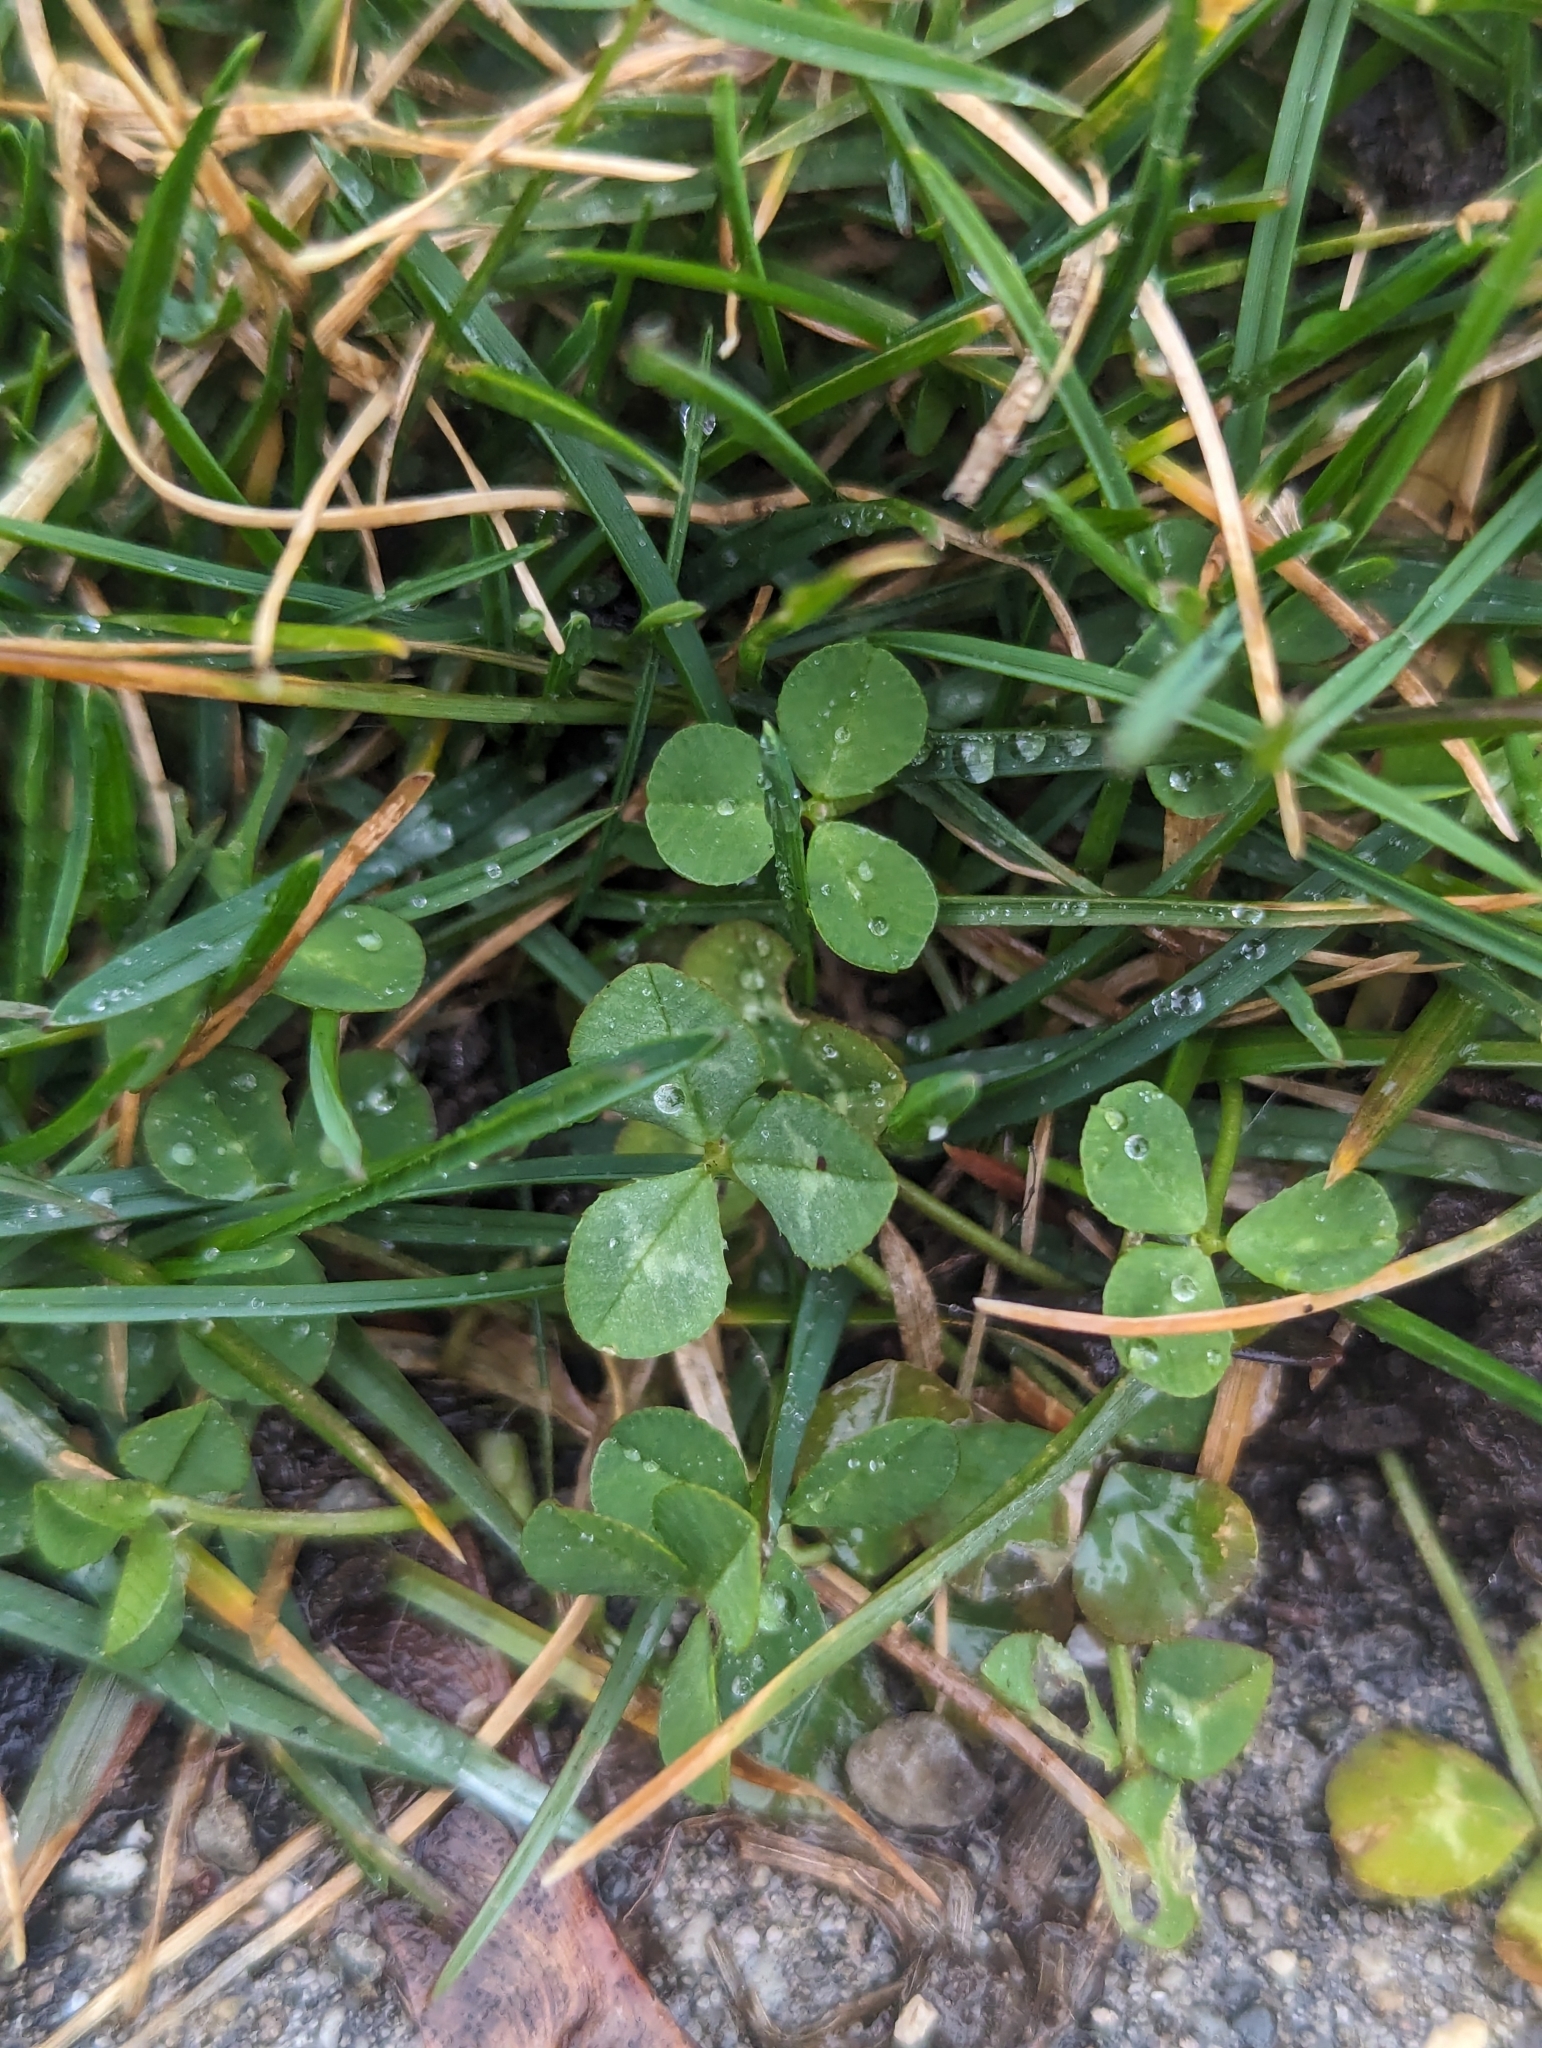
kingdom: Plantae
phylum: Tracheophyta
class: Magnoliopsida
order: Fabales
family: Fabaceae
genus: Trifolium
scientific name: Trifolium repens
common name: White clover
